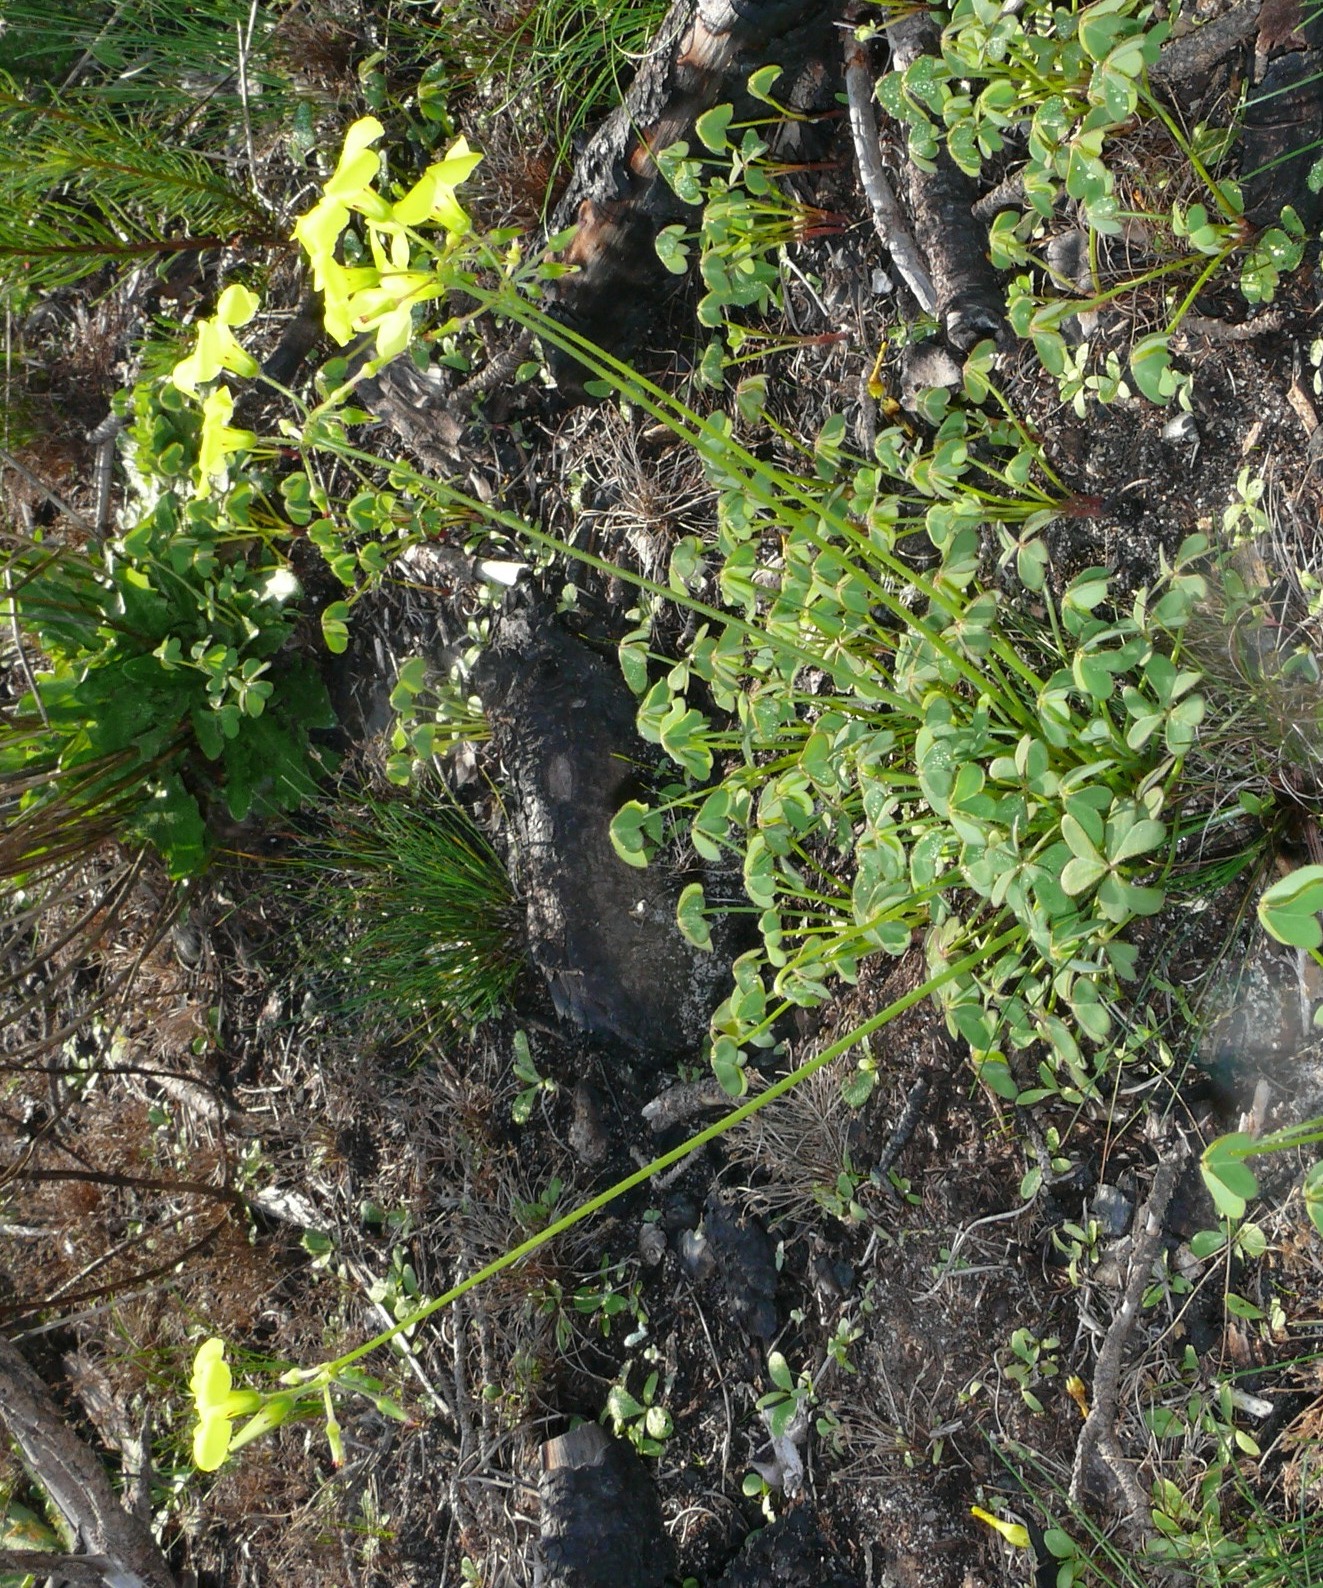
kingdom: Plantae
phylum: Tracheophyta
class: Magnoliopsida
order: Oxalidales
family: Oxalidaceae
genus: Oxalis
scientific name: Oxalis pes-caprae
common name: Bermuda-buttercup
